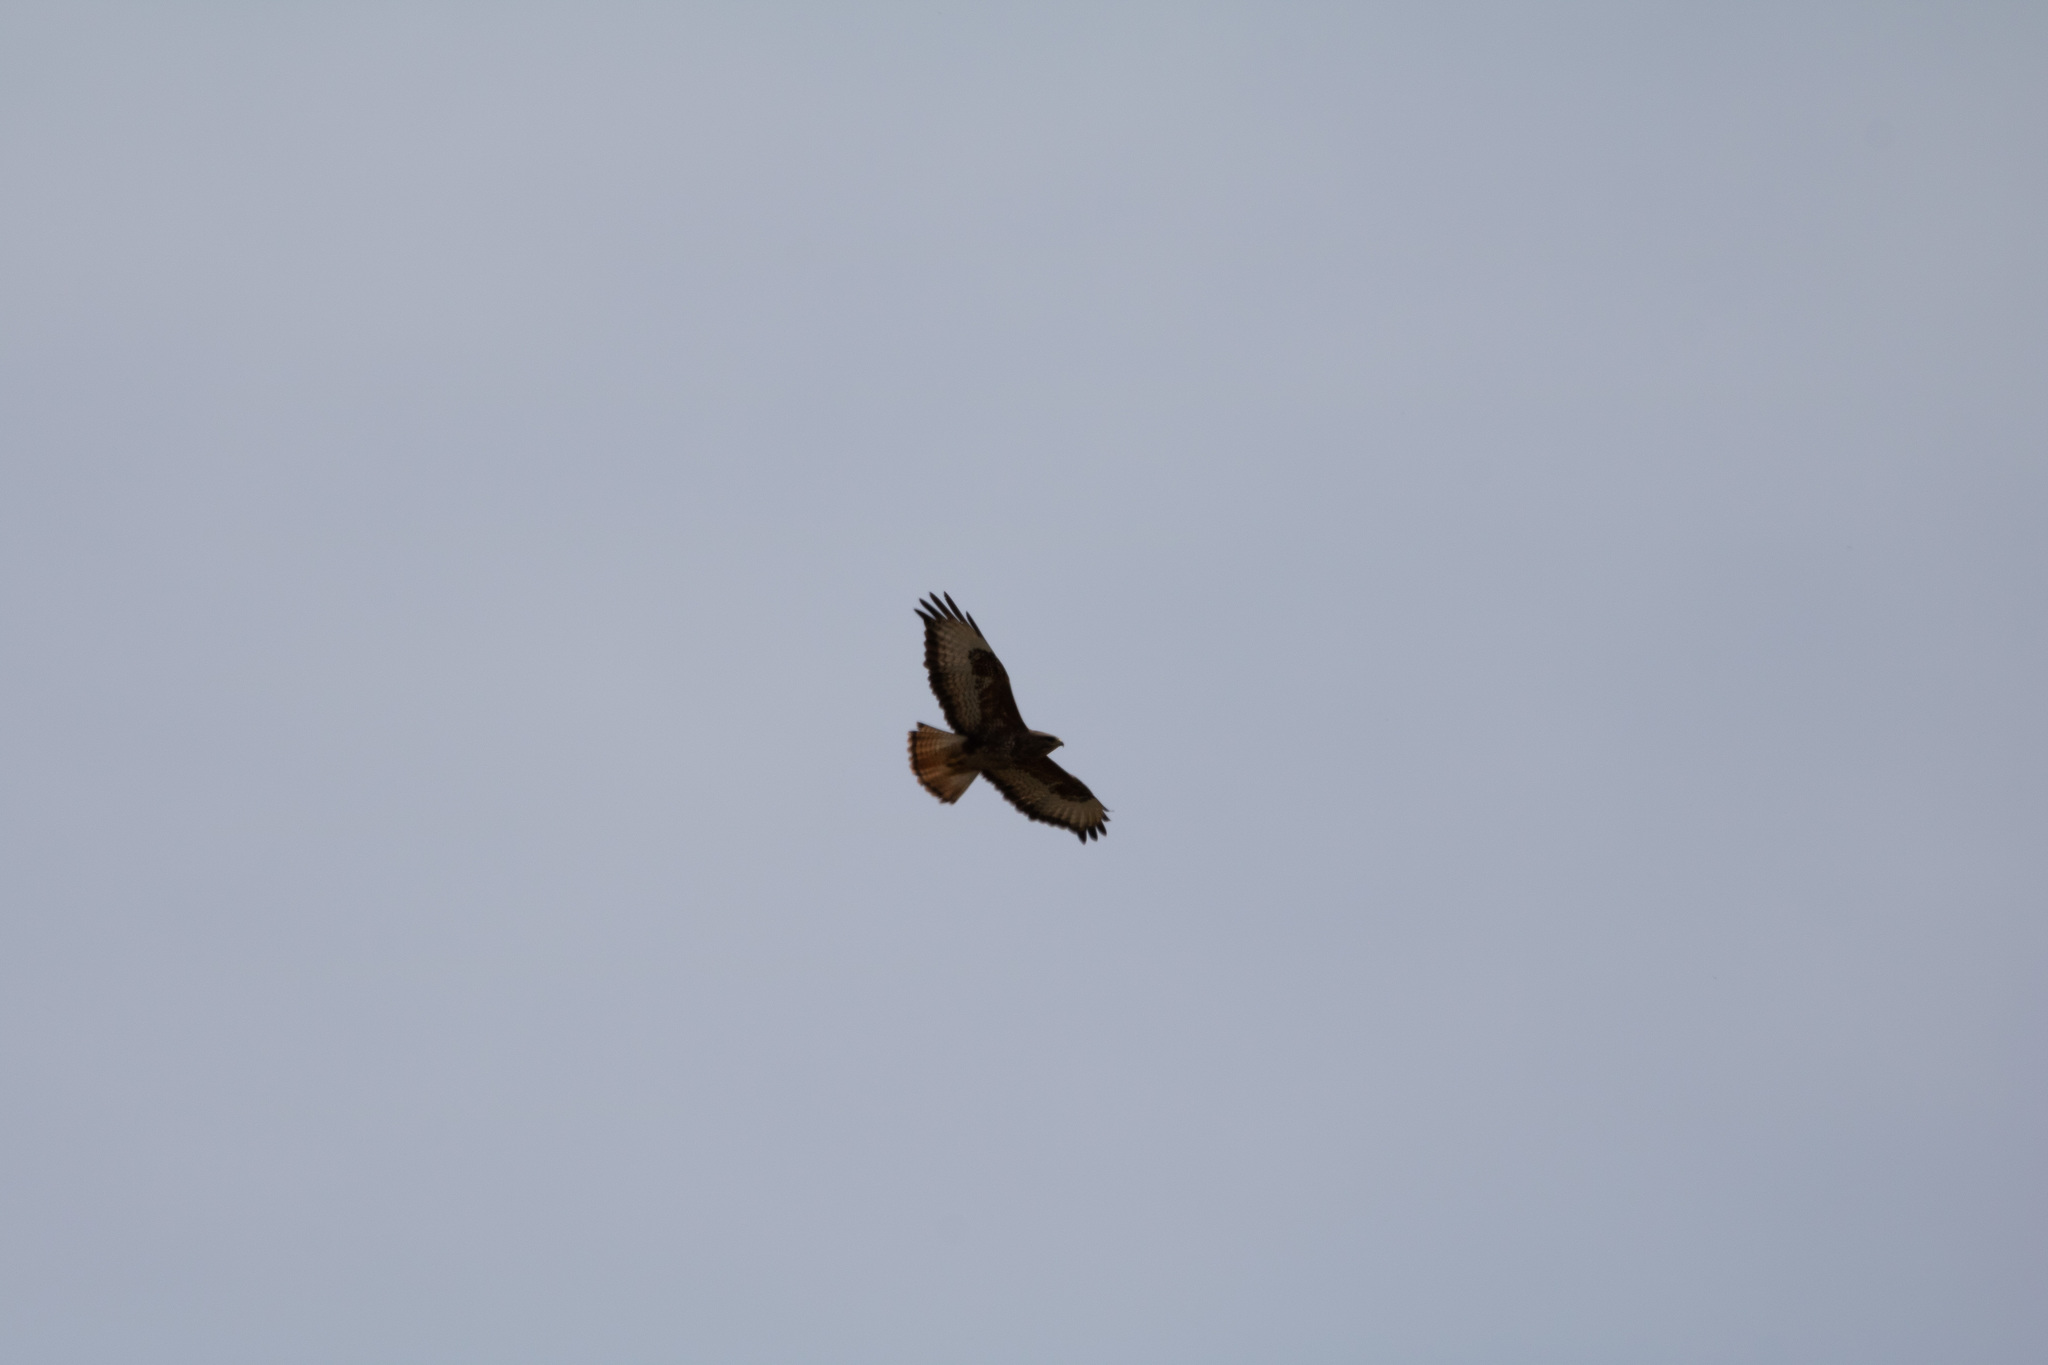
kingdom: Animalia
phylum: Chordata
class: Aves
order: Accipitriformes
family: Accipitridae
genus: Buteo
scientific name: Buteo buteo
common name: Common buzzard
